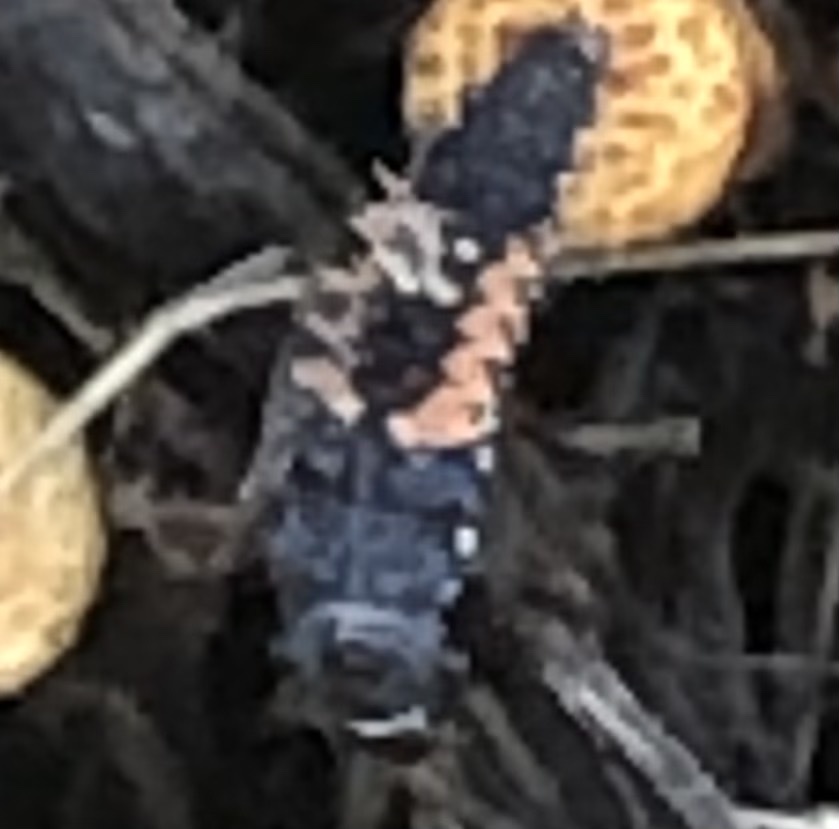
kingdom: Animalia
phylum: Arthropoda
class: Insecta
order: Coleoptera
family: Coccinellidae
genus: Harmonia
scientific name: Harmonia axyridis
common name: Harlequin ladybird
